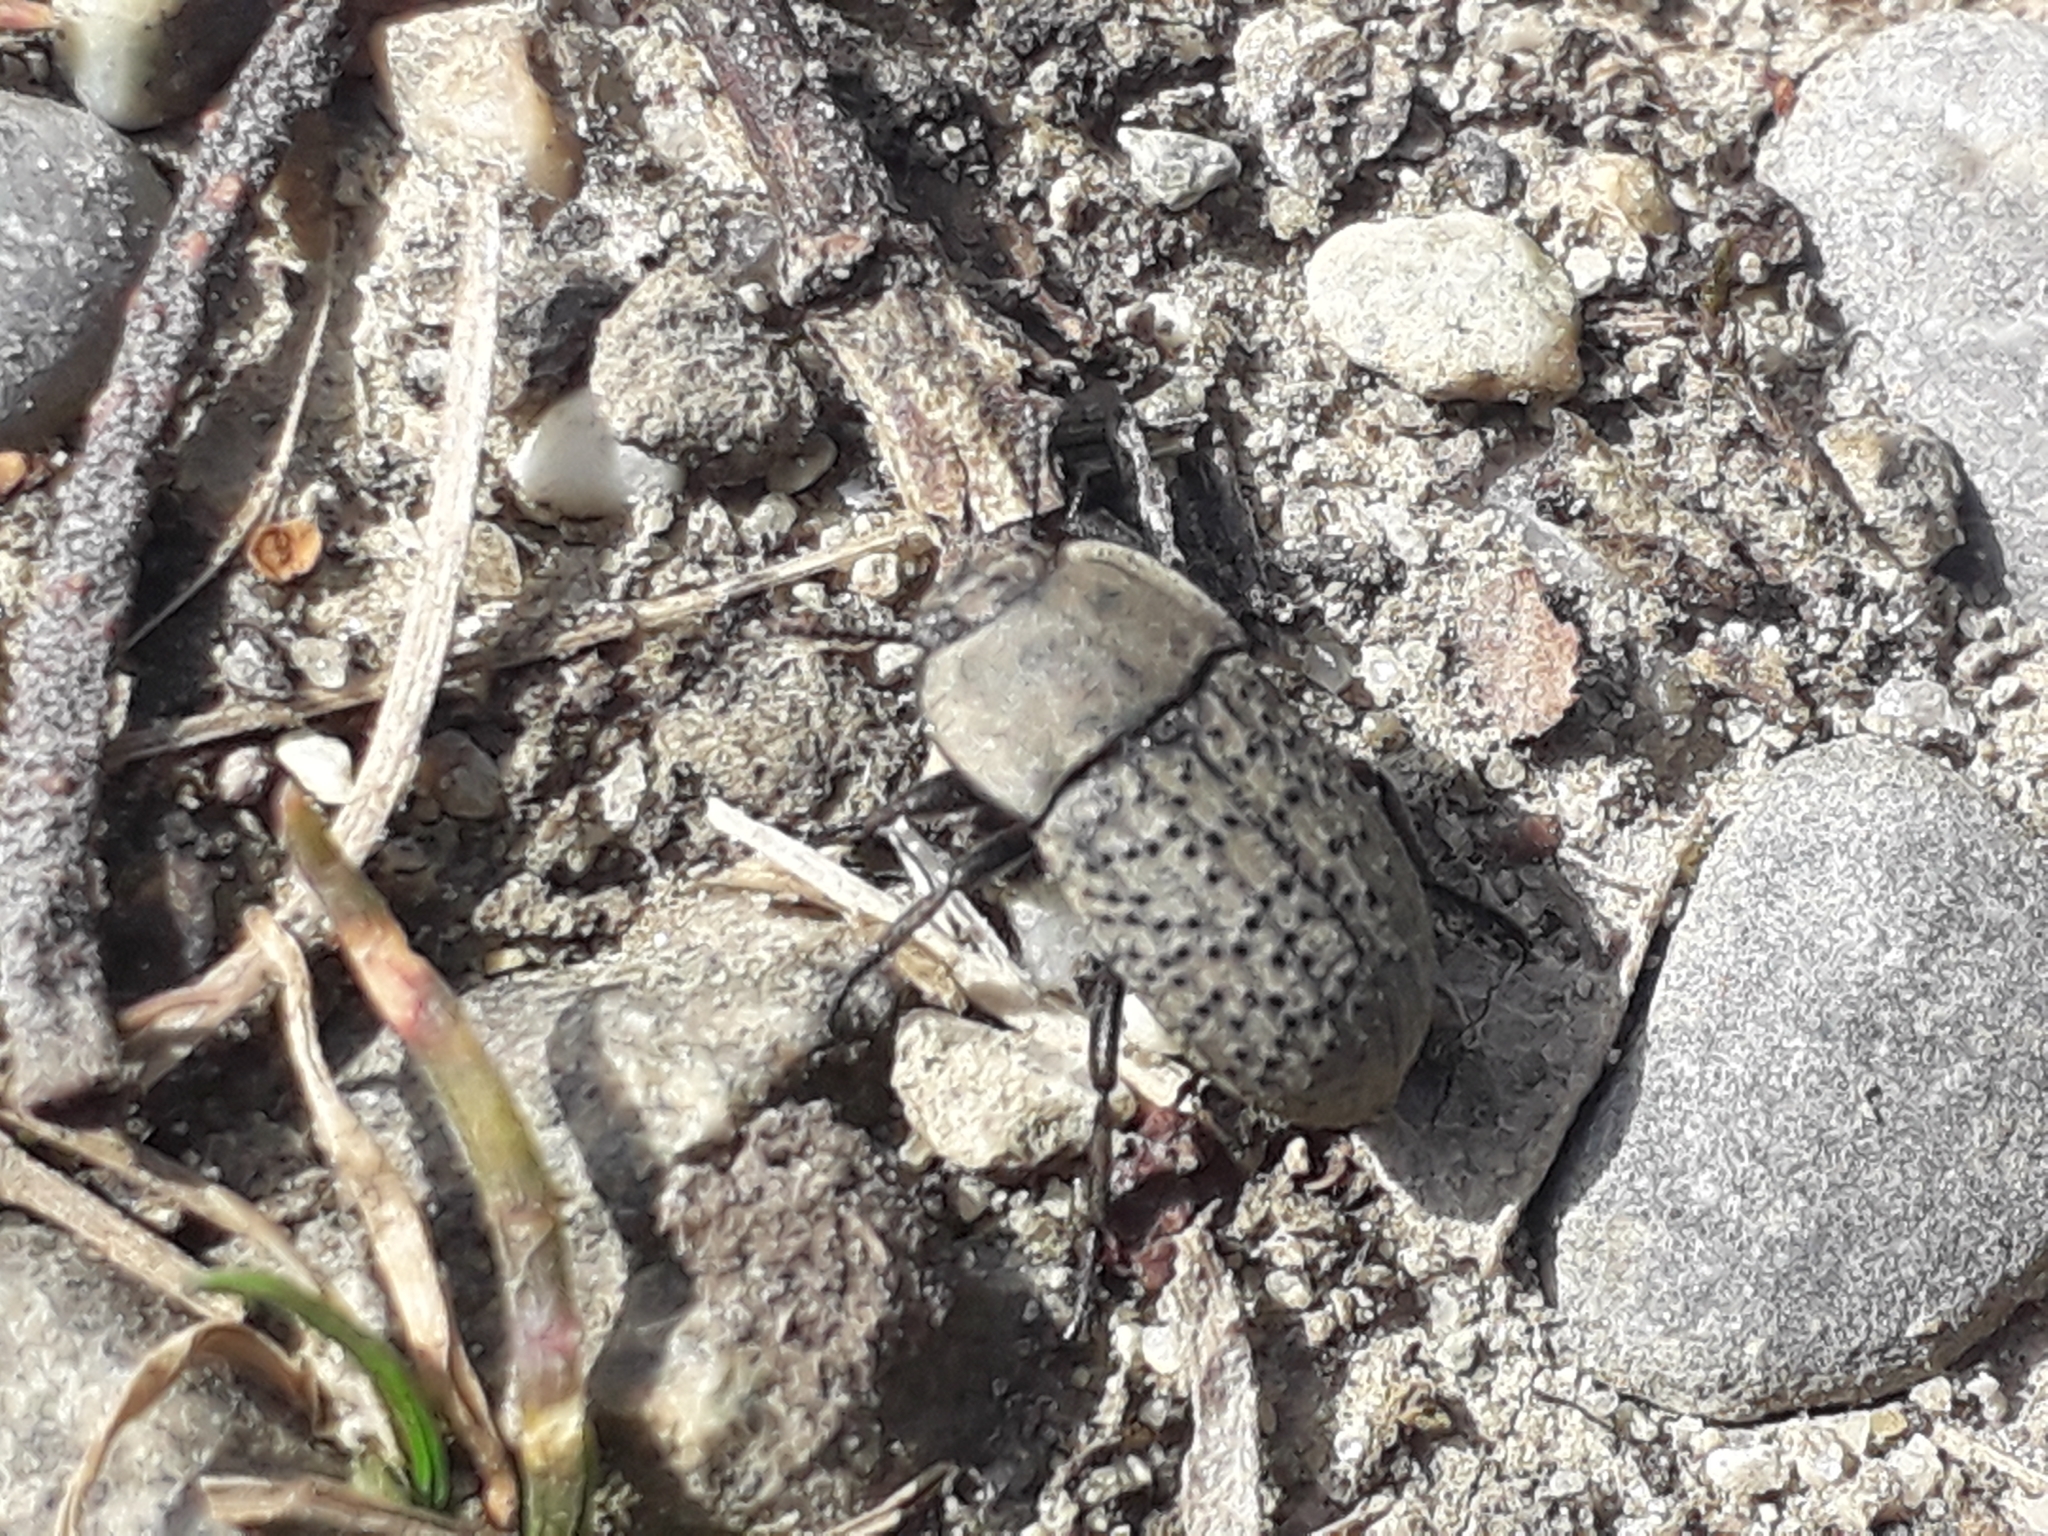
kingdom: Animalia
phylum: Arthropoda
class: Insecta
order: Coleoptera
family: Tenebrionidae
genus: Opatrum
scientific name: Opatrum sabulosum
